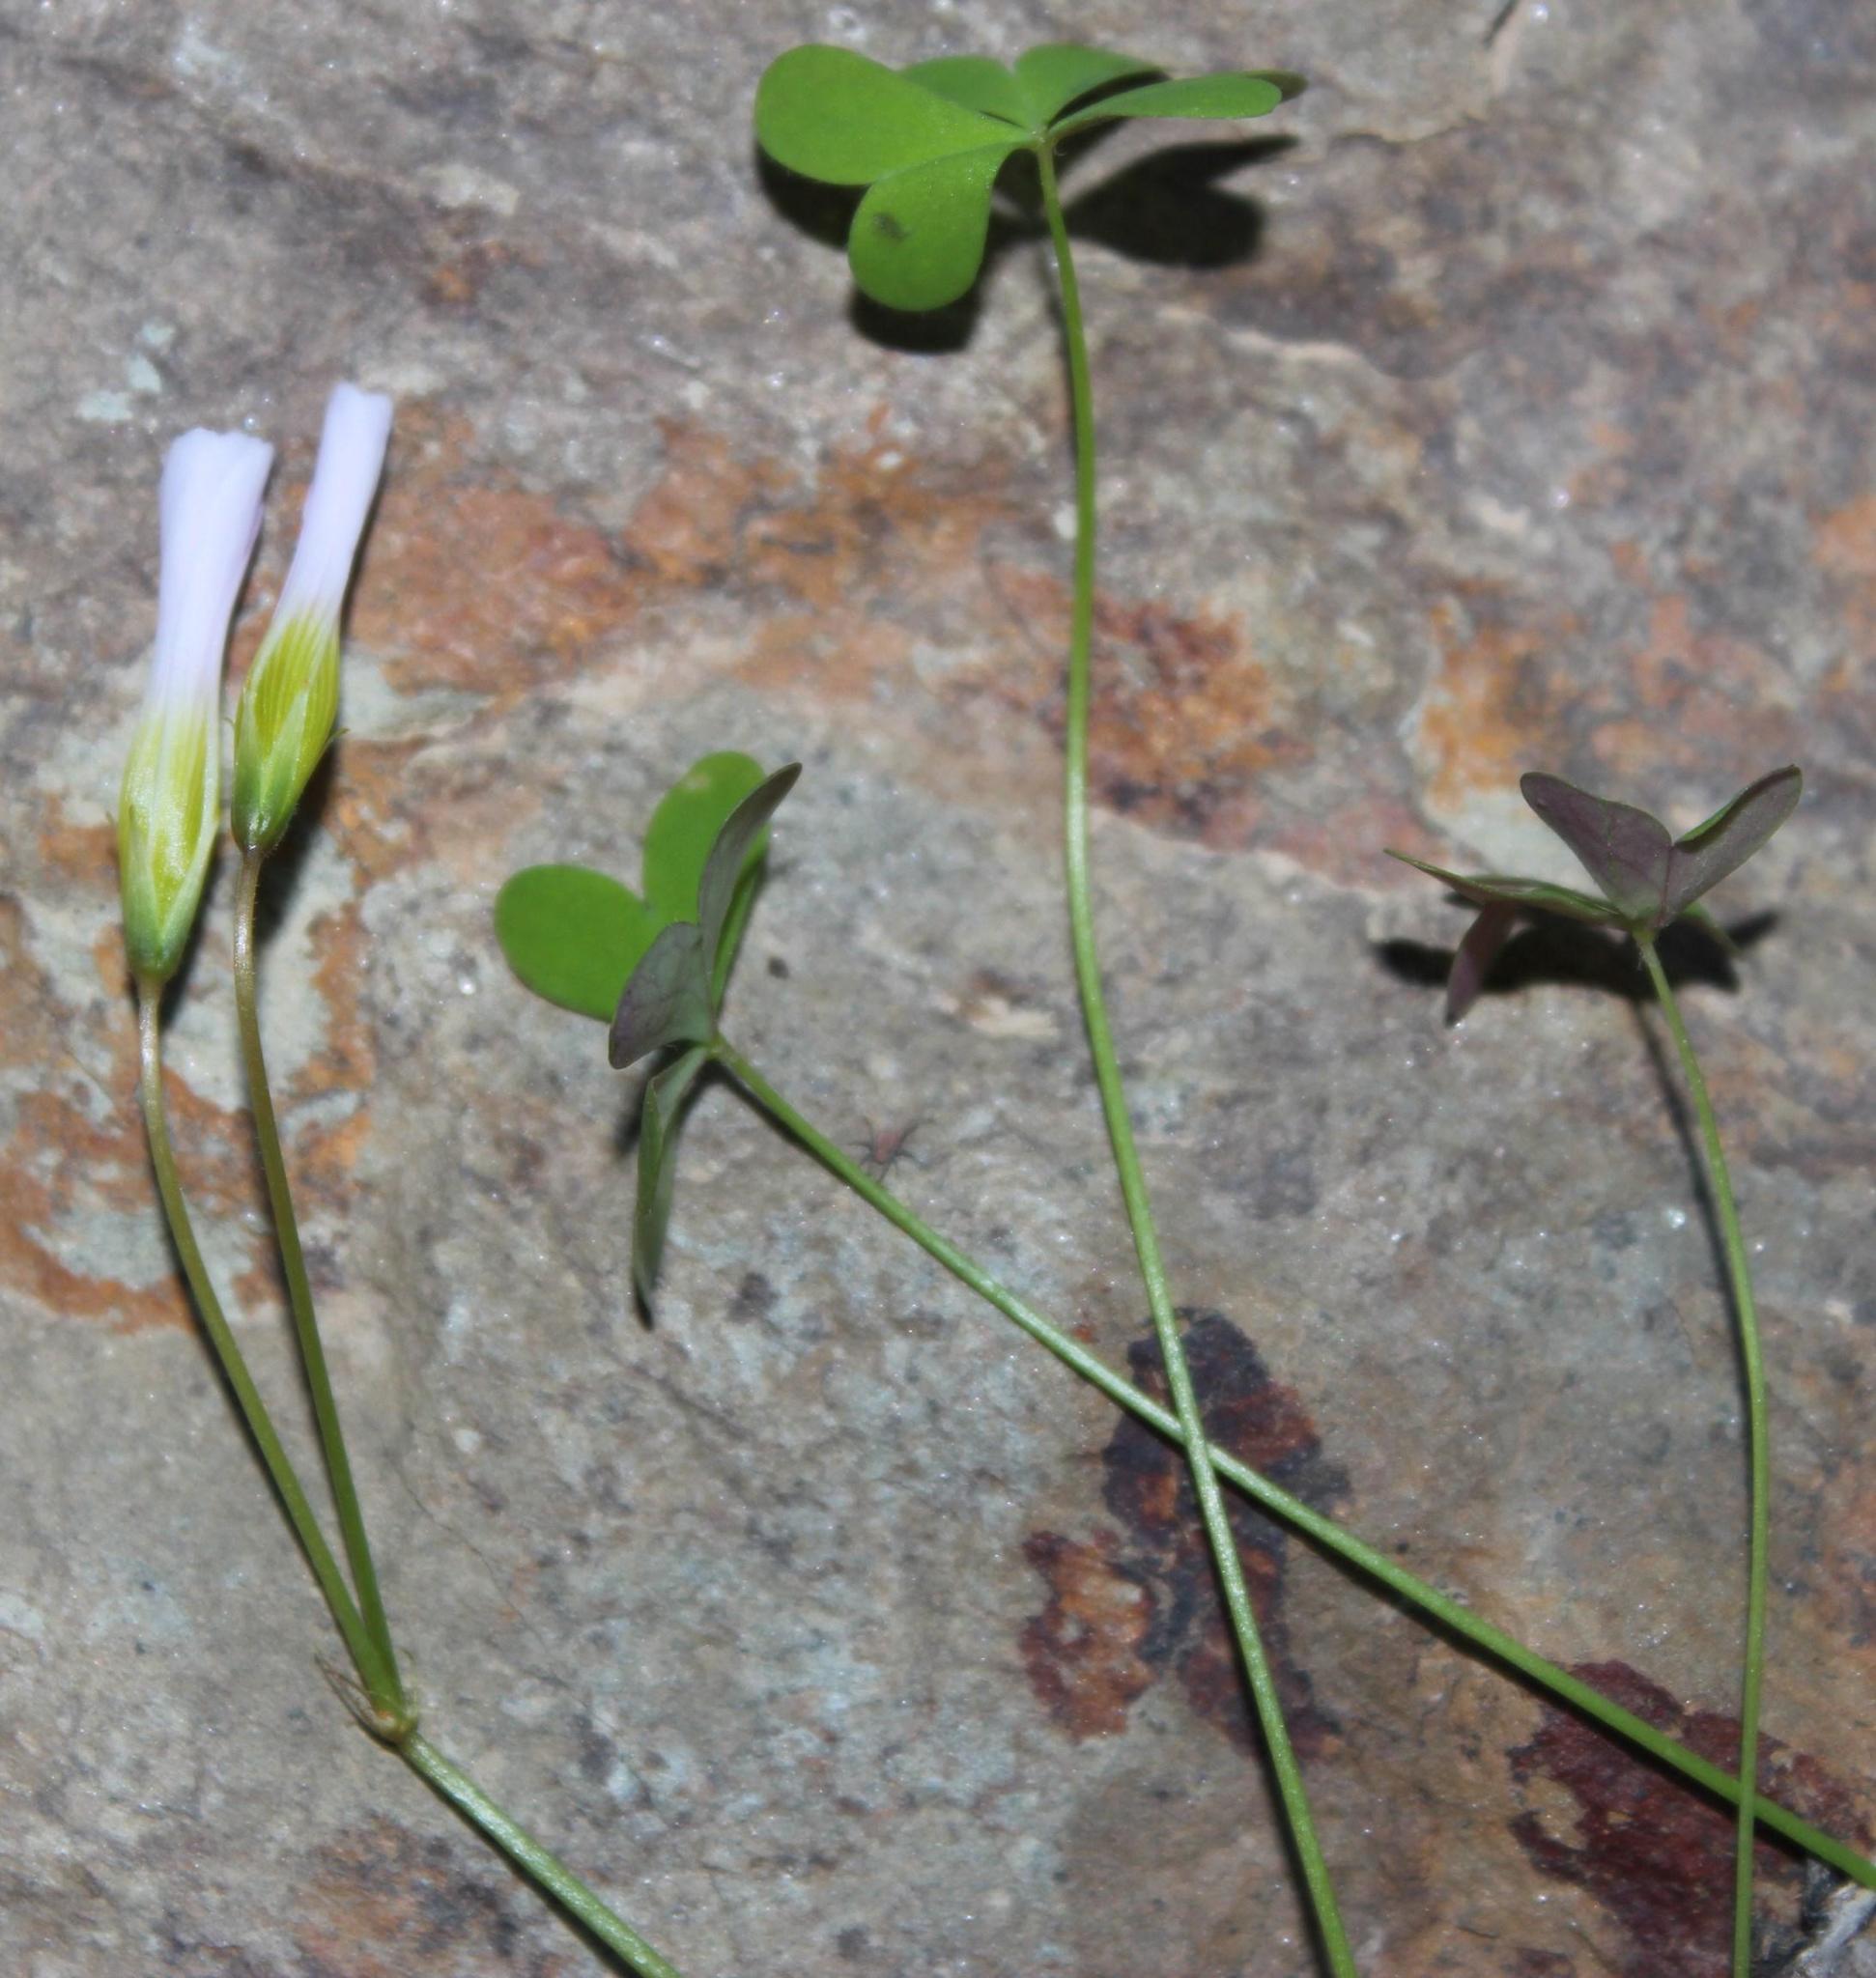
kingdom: Plantae
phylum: Tracheophyta
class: Magnoliopsida
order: Oxalidales
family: Oxalidaceae
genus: Oxalis
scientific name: Oxalis caprina
